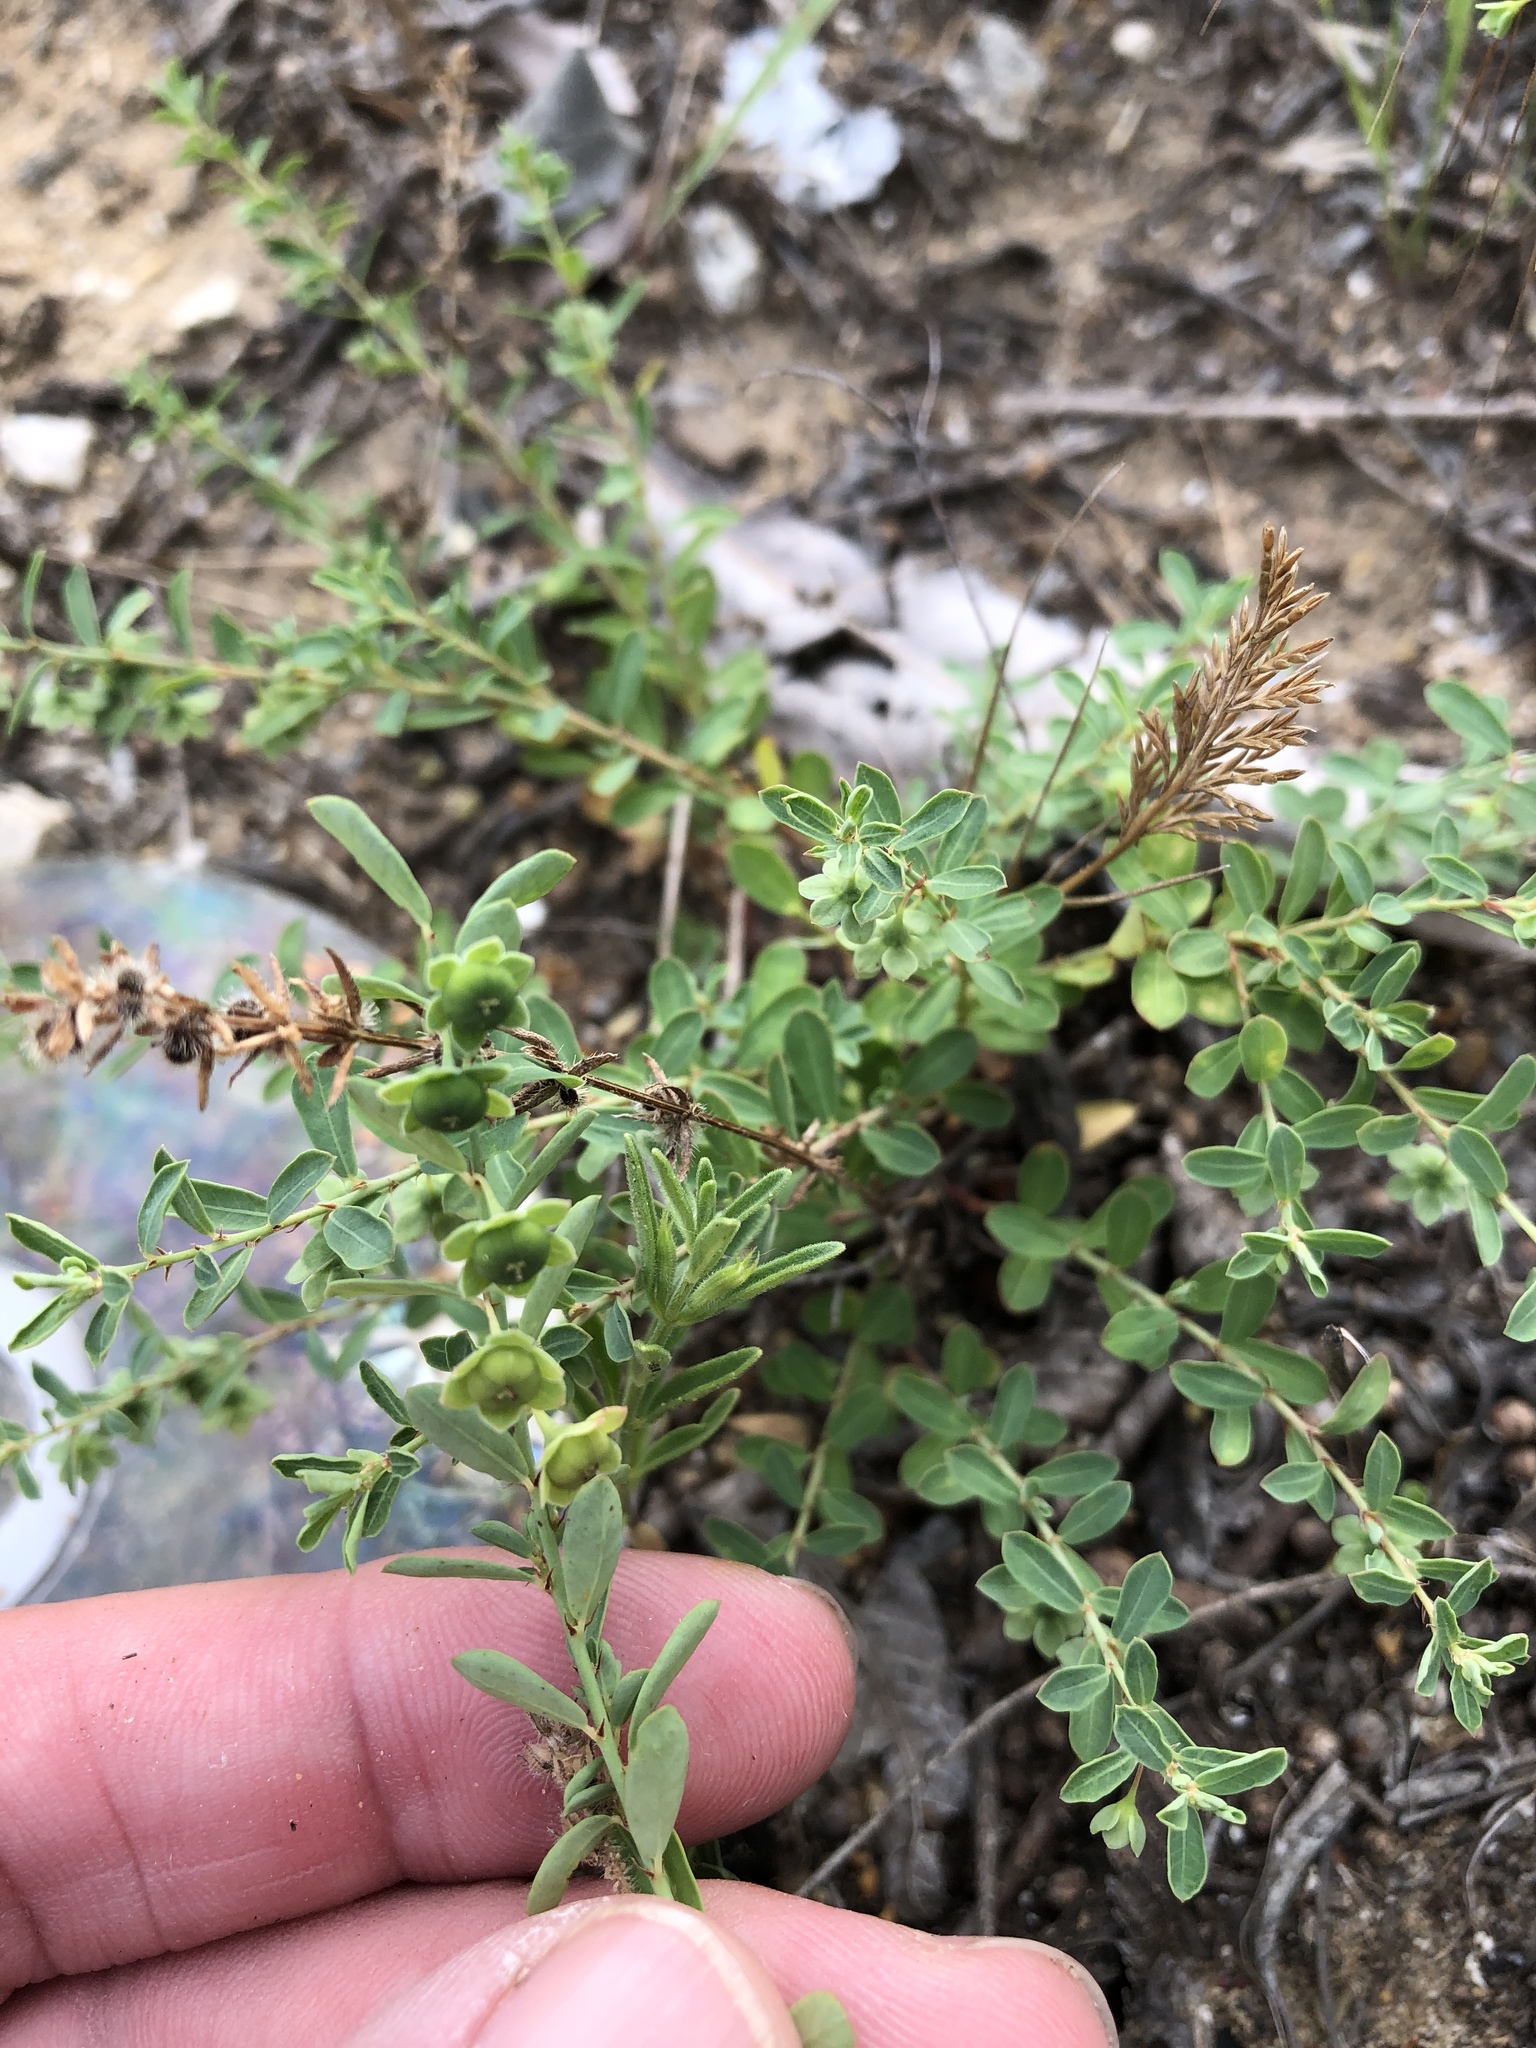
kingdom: Plantae
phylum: Tracheophyta
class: Magnoliopsida
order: Malpighiales
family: Phyllanthaceae
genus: Phyllanthus
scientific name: Phyllanthus polygonoides
